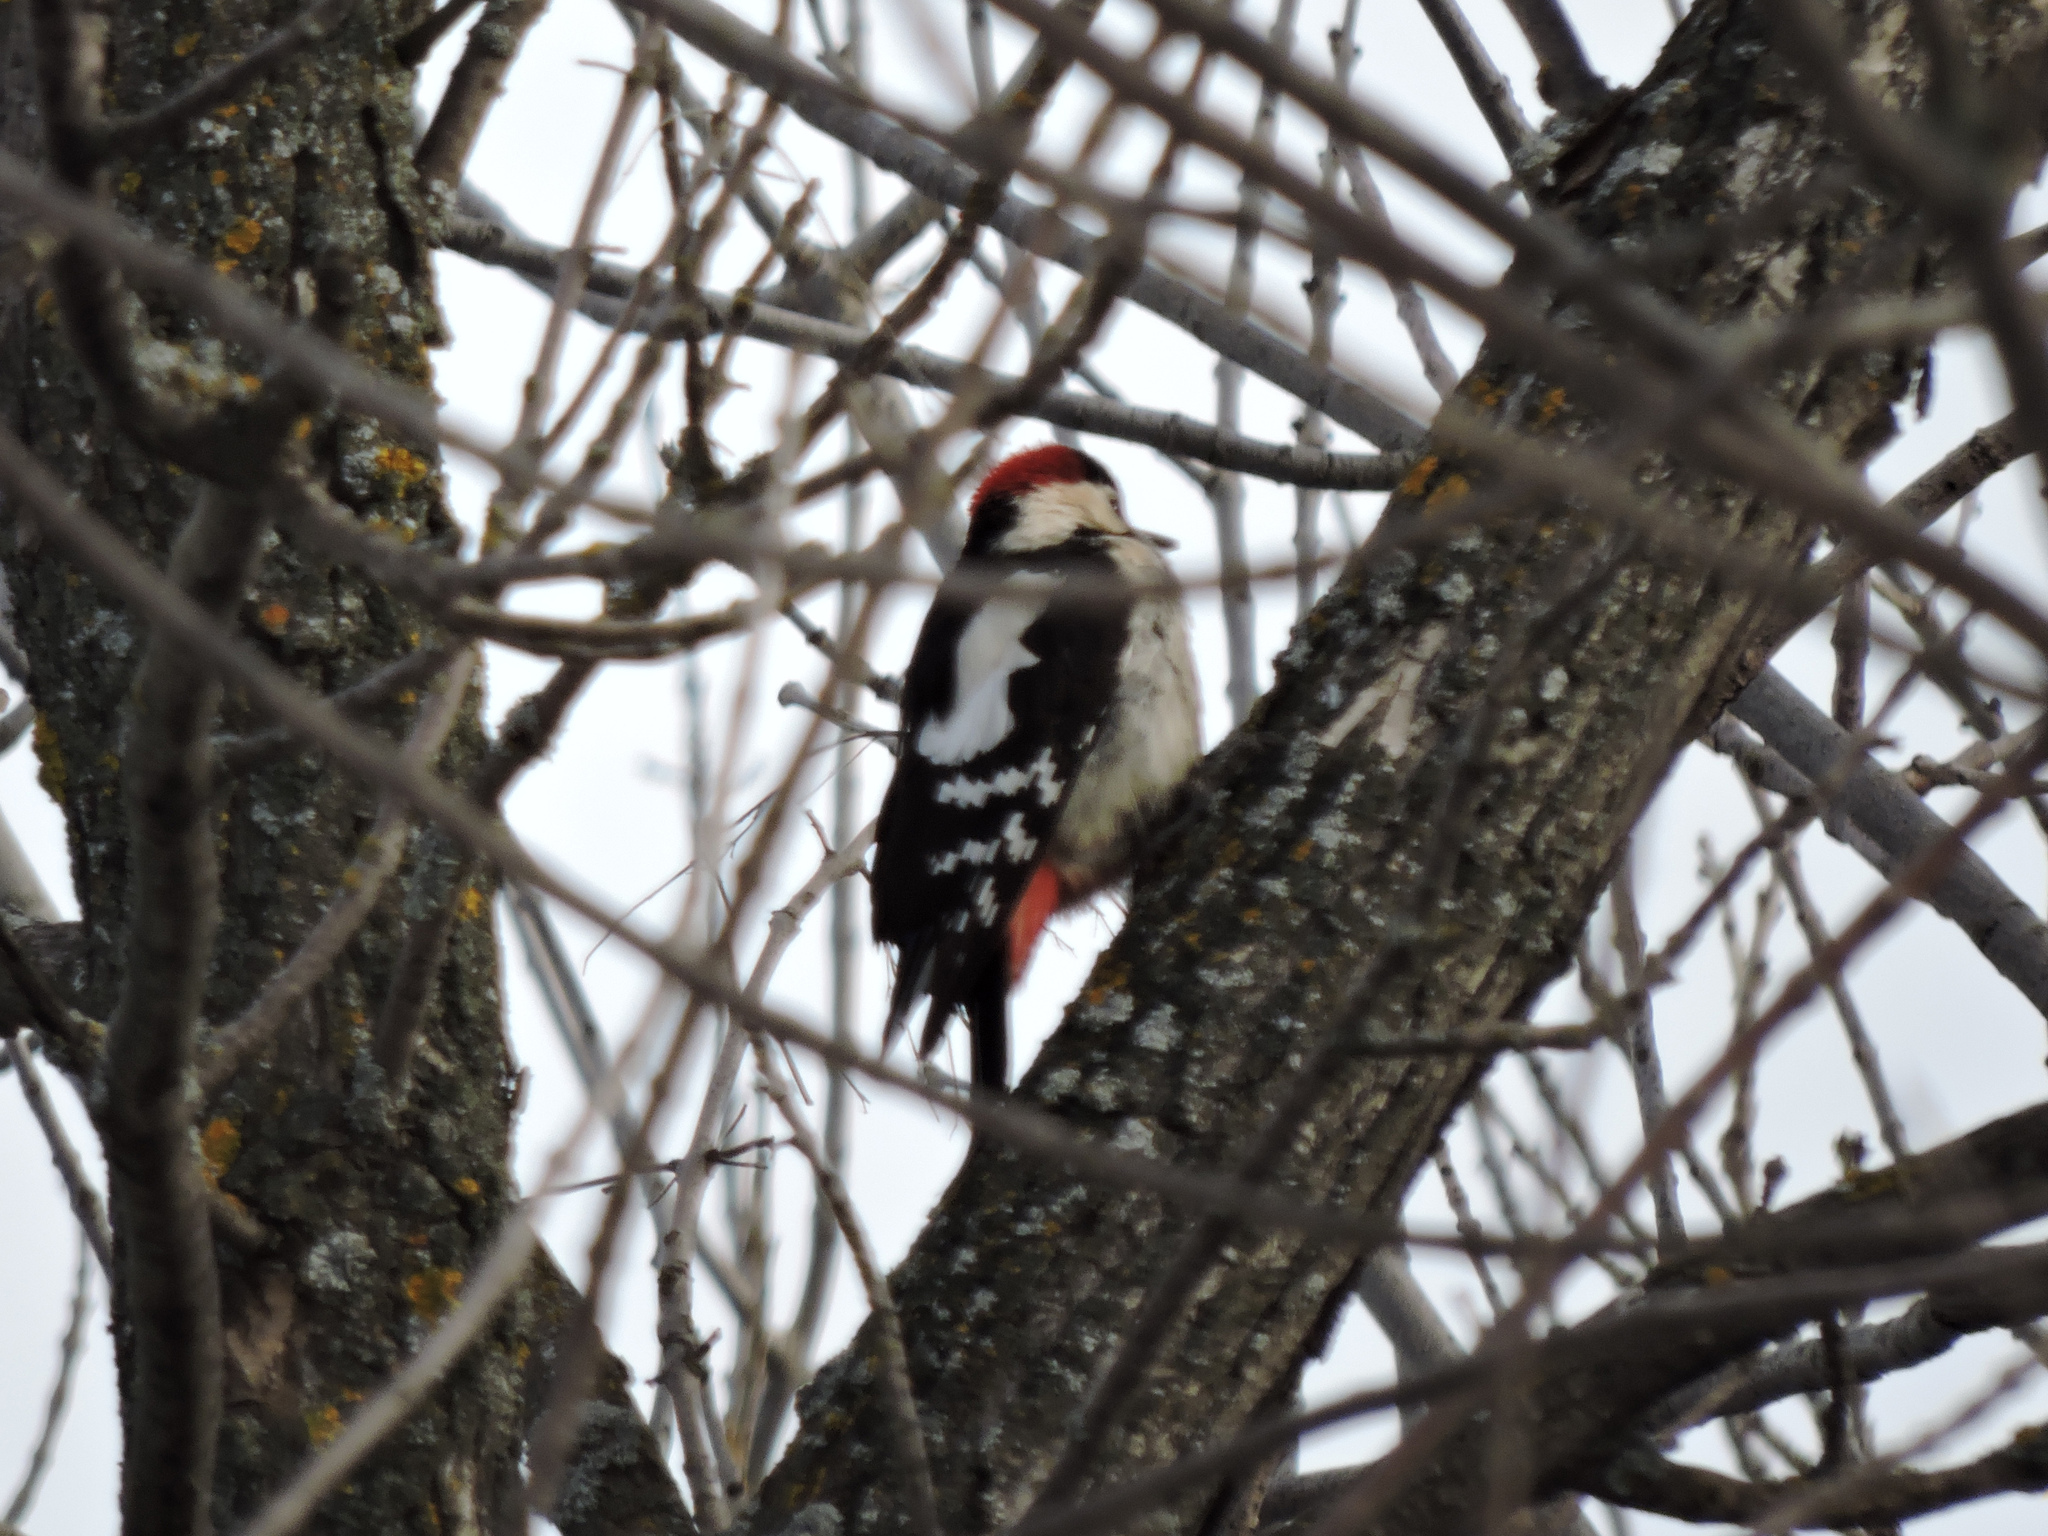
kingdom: Animalia
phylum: Chordata
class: Aves
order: Piciformes
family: Picidae
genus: Dendrocopos
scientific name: Dendrocopos syriacus
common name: Syrian woodpecker
